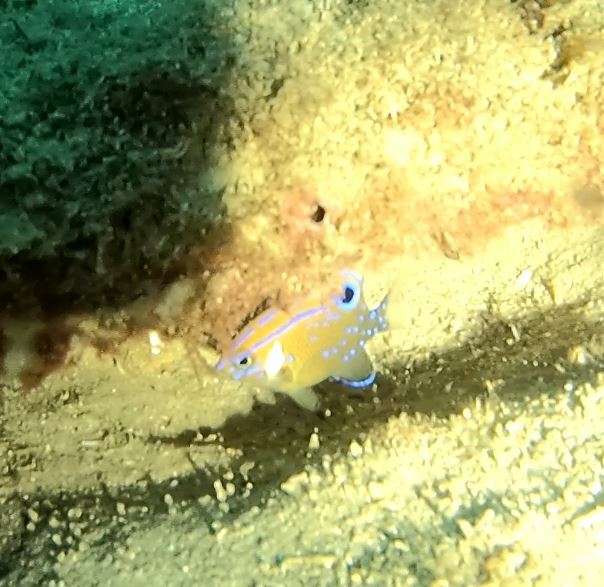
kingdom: Animalia
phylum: Chordata
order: Perciformes
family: Pomacentridae
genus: Parma
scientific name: Parma microlepis
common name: White-ear
